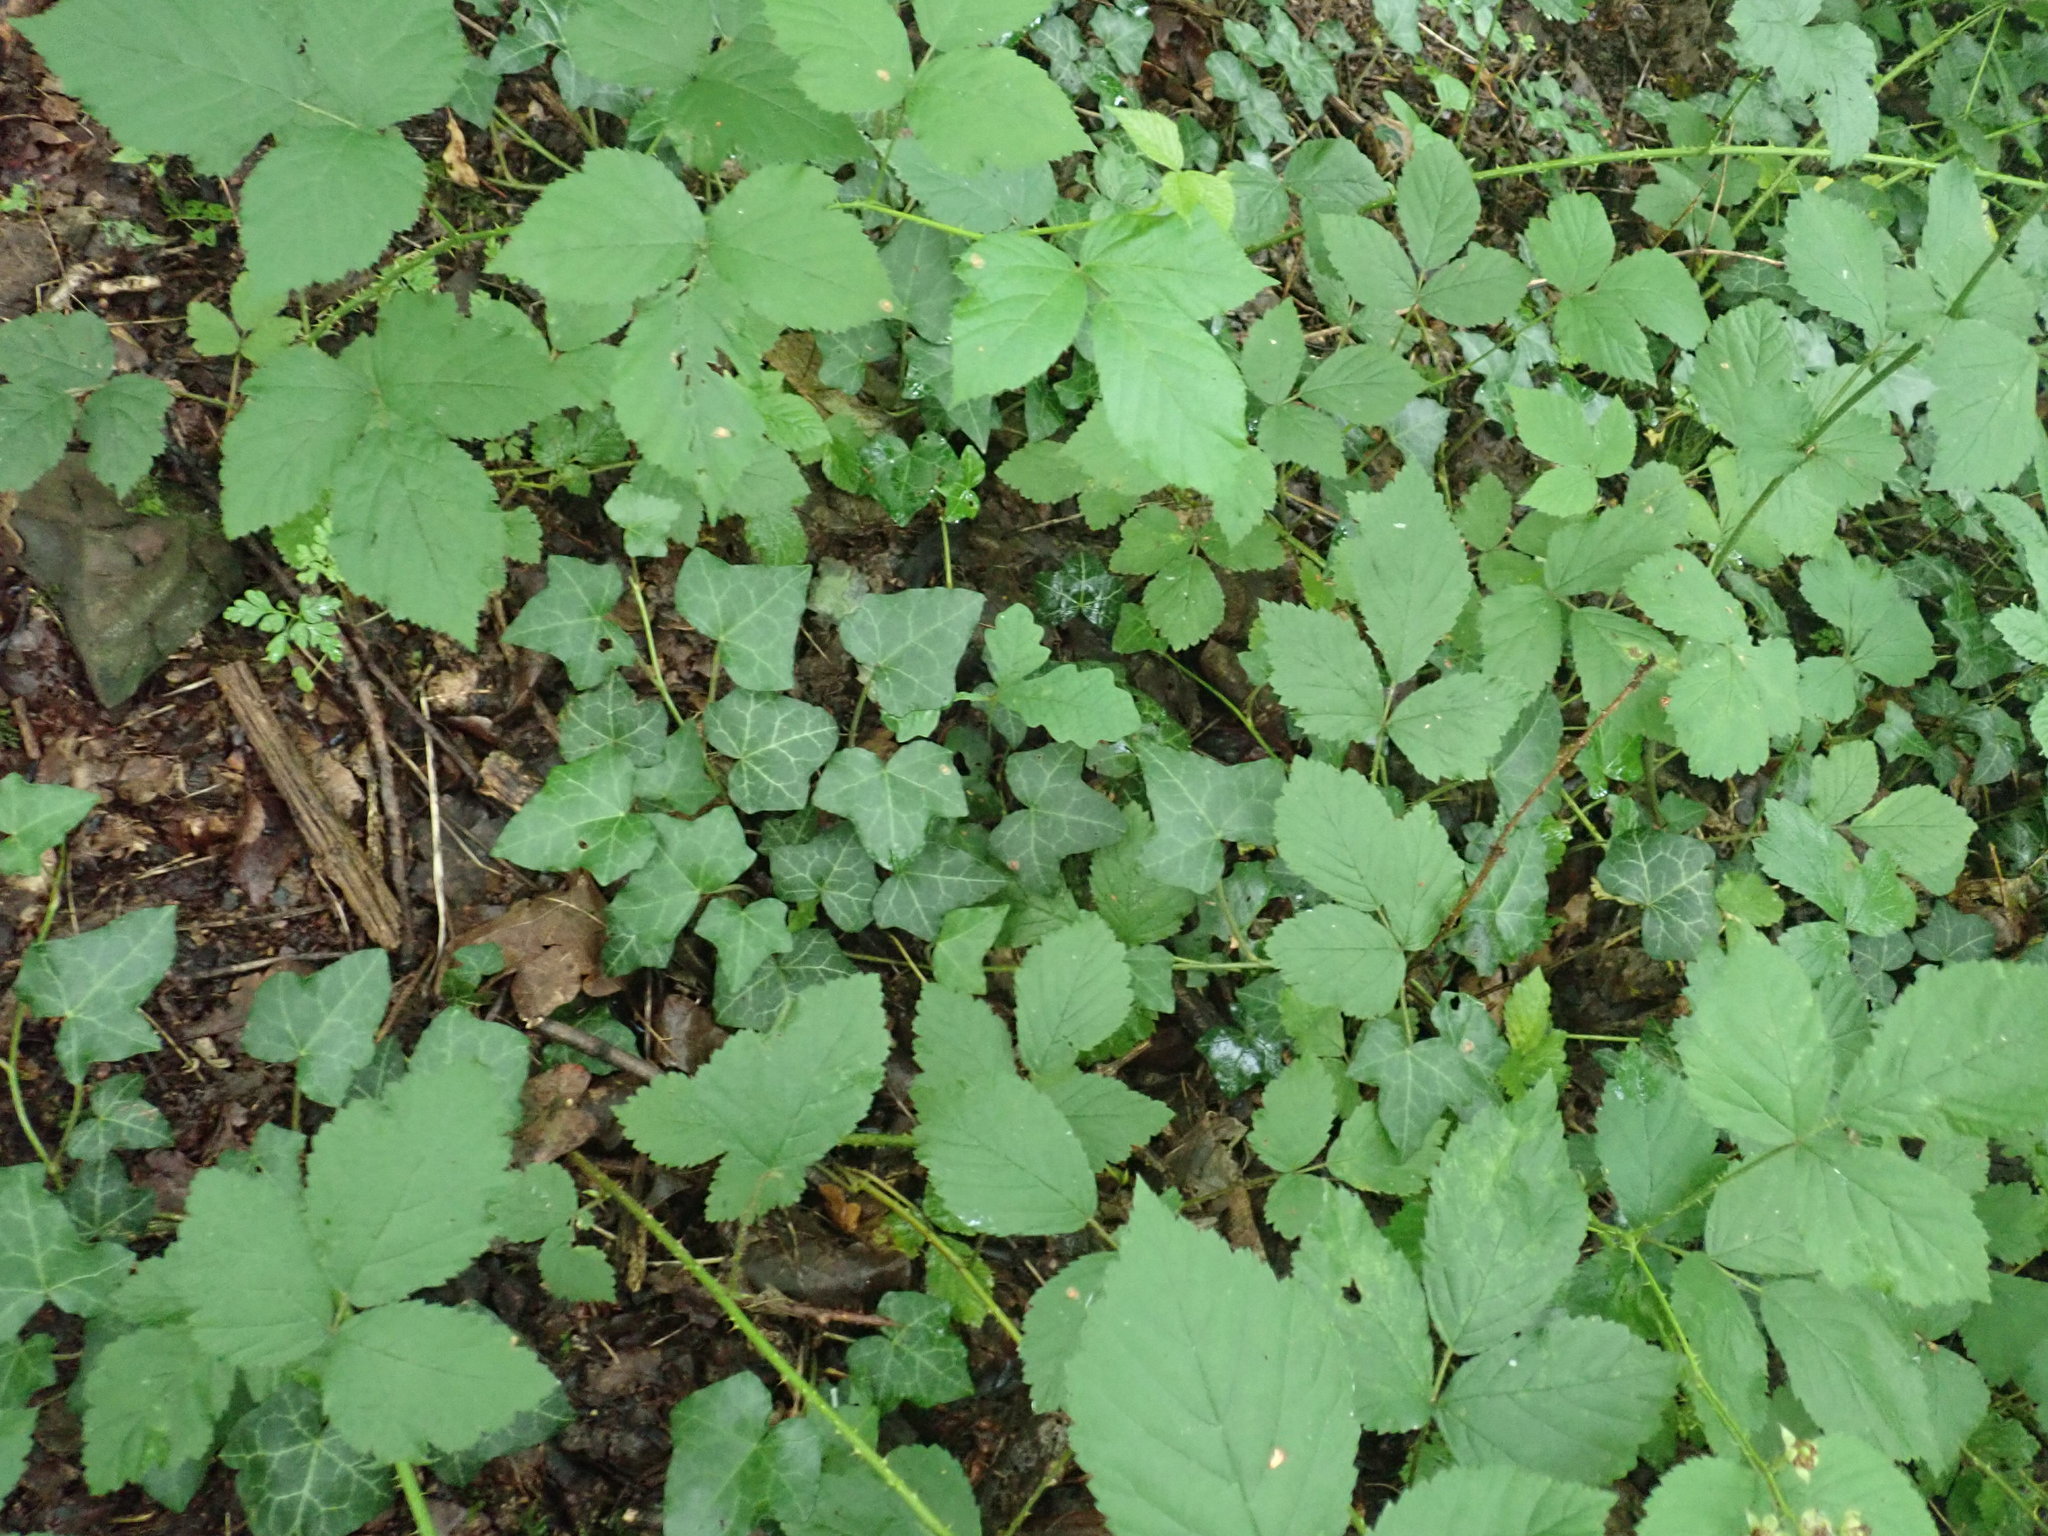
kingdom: Plantae
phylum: Tracheophyta
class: Magnoliopsida
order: Apiales
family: Araliaceae
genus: Hedera
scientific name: Hedera helix
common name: Ivy
